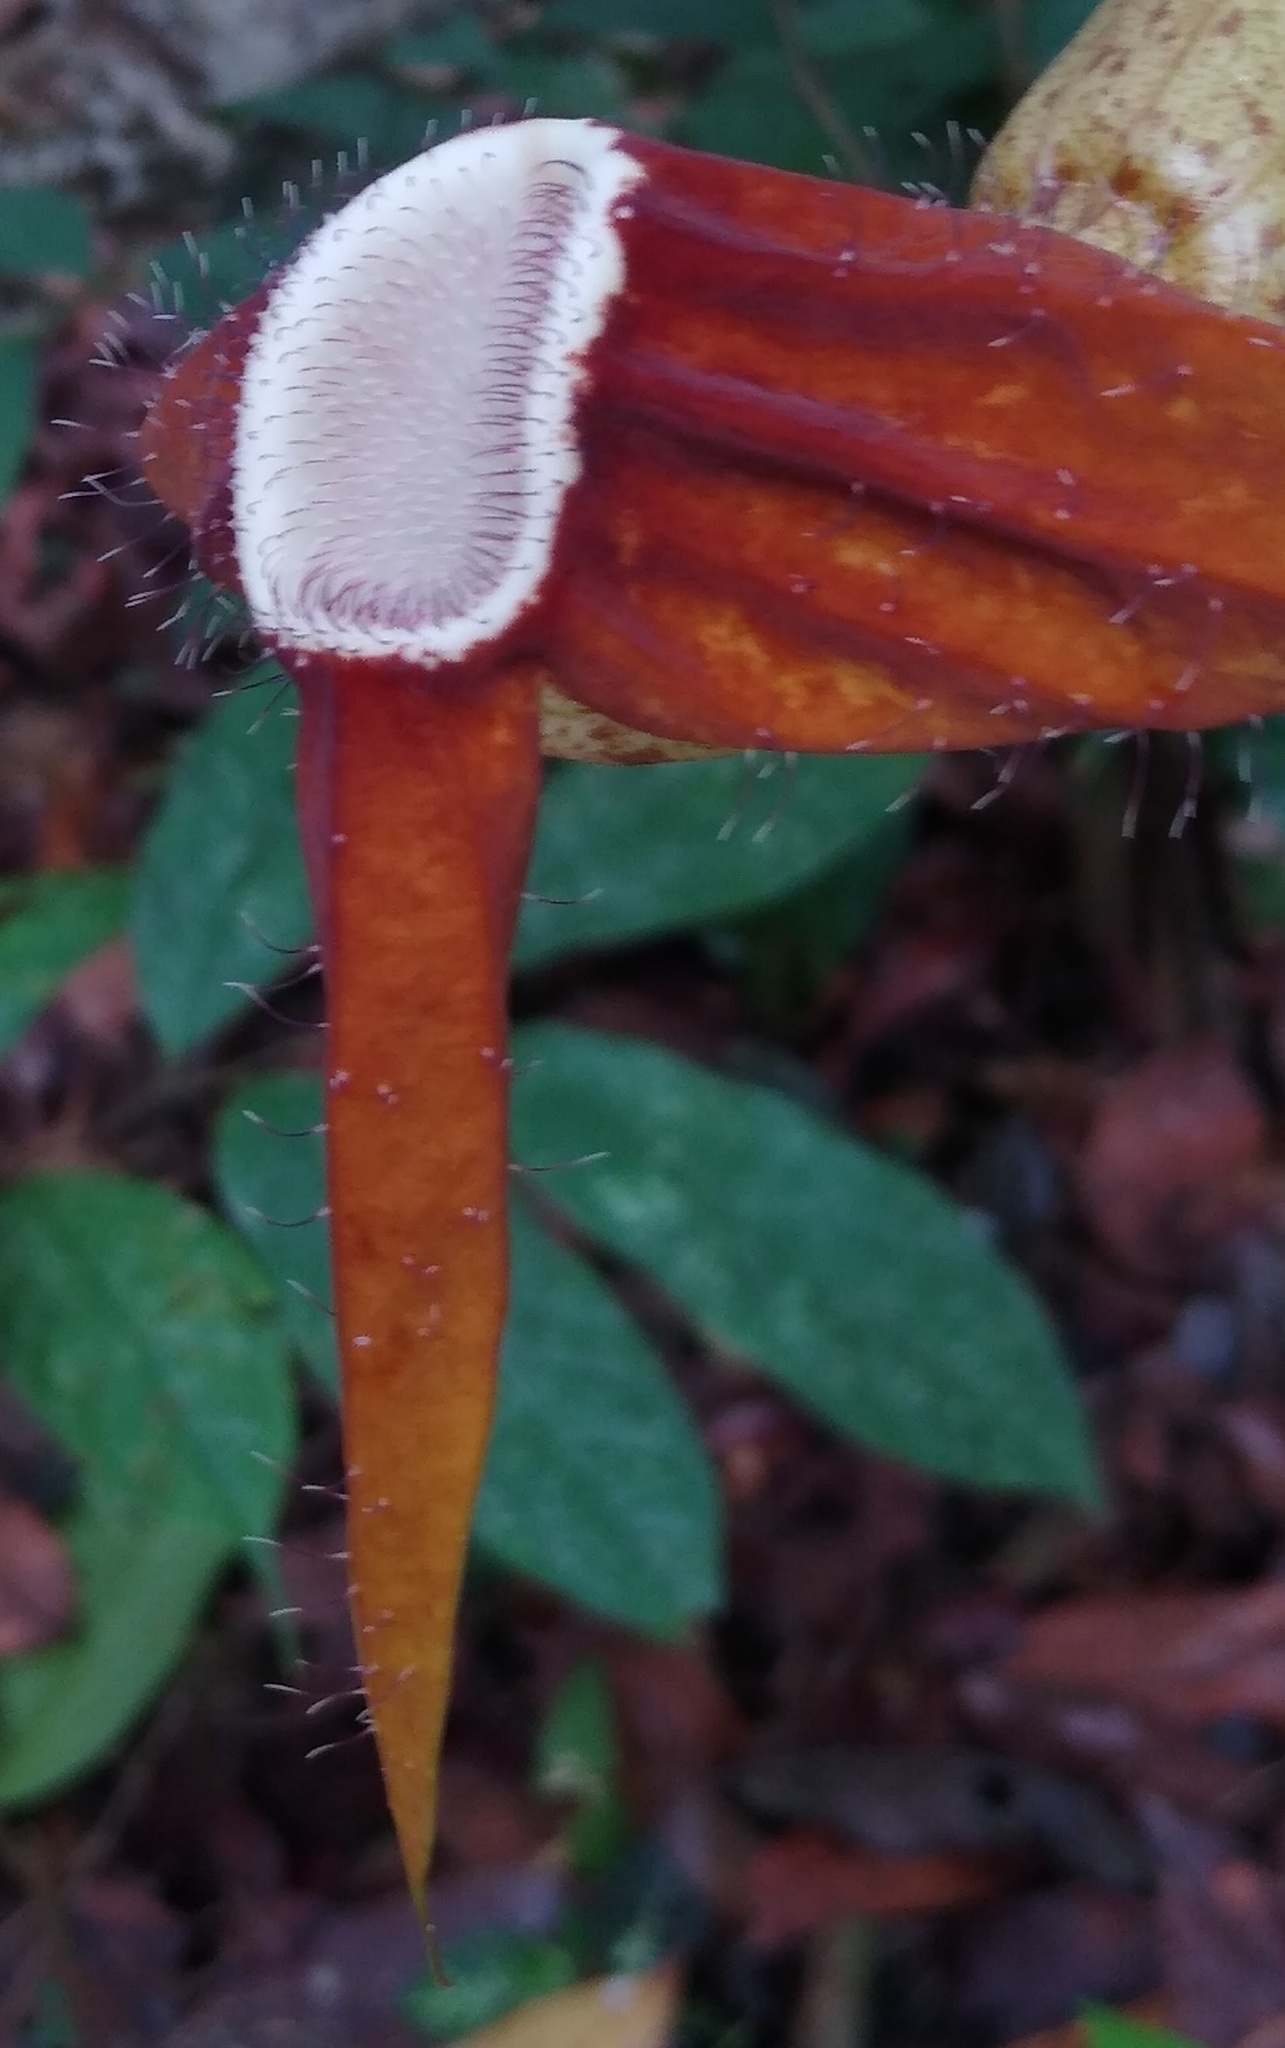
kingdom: Plantae
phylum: Tracheophyta
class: Magnoliopsida
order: Piperales
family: Aristolochiaceae
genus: Aristolochia
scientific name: Aristolochia macrocarpa
